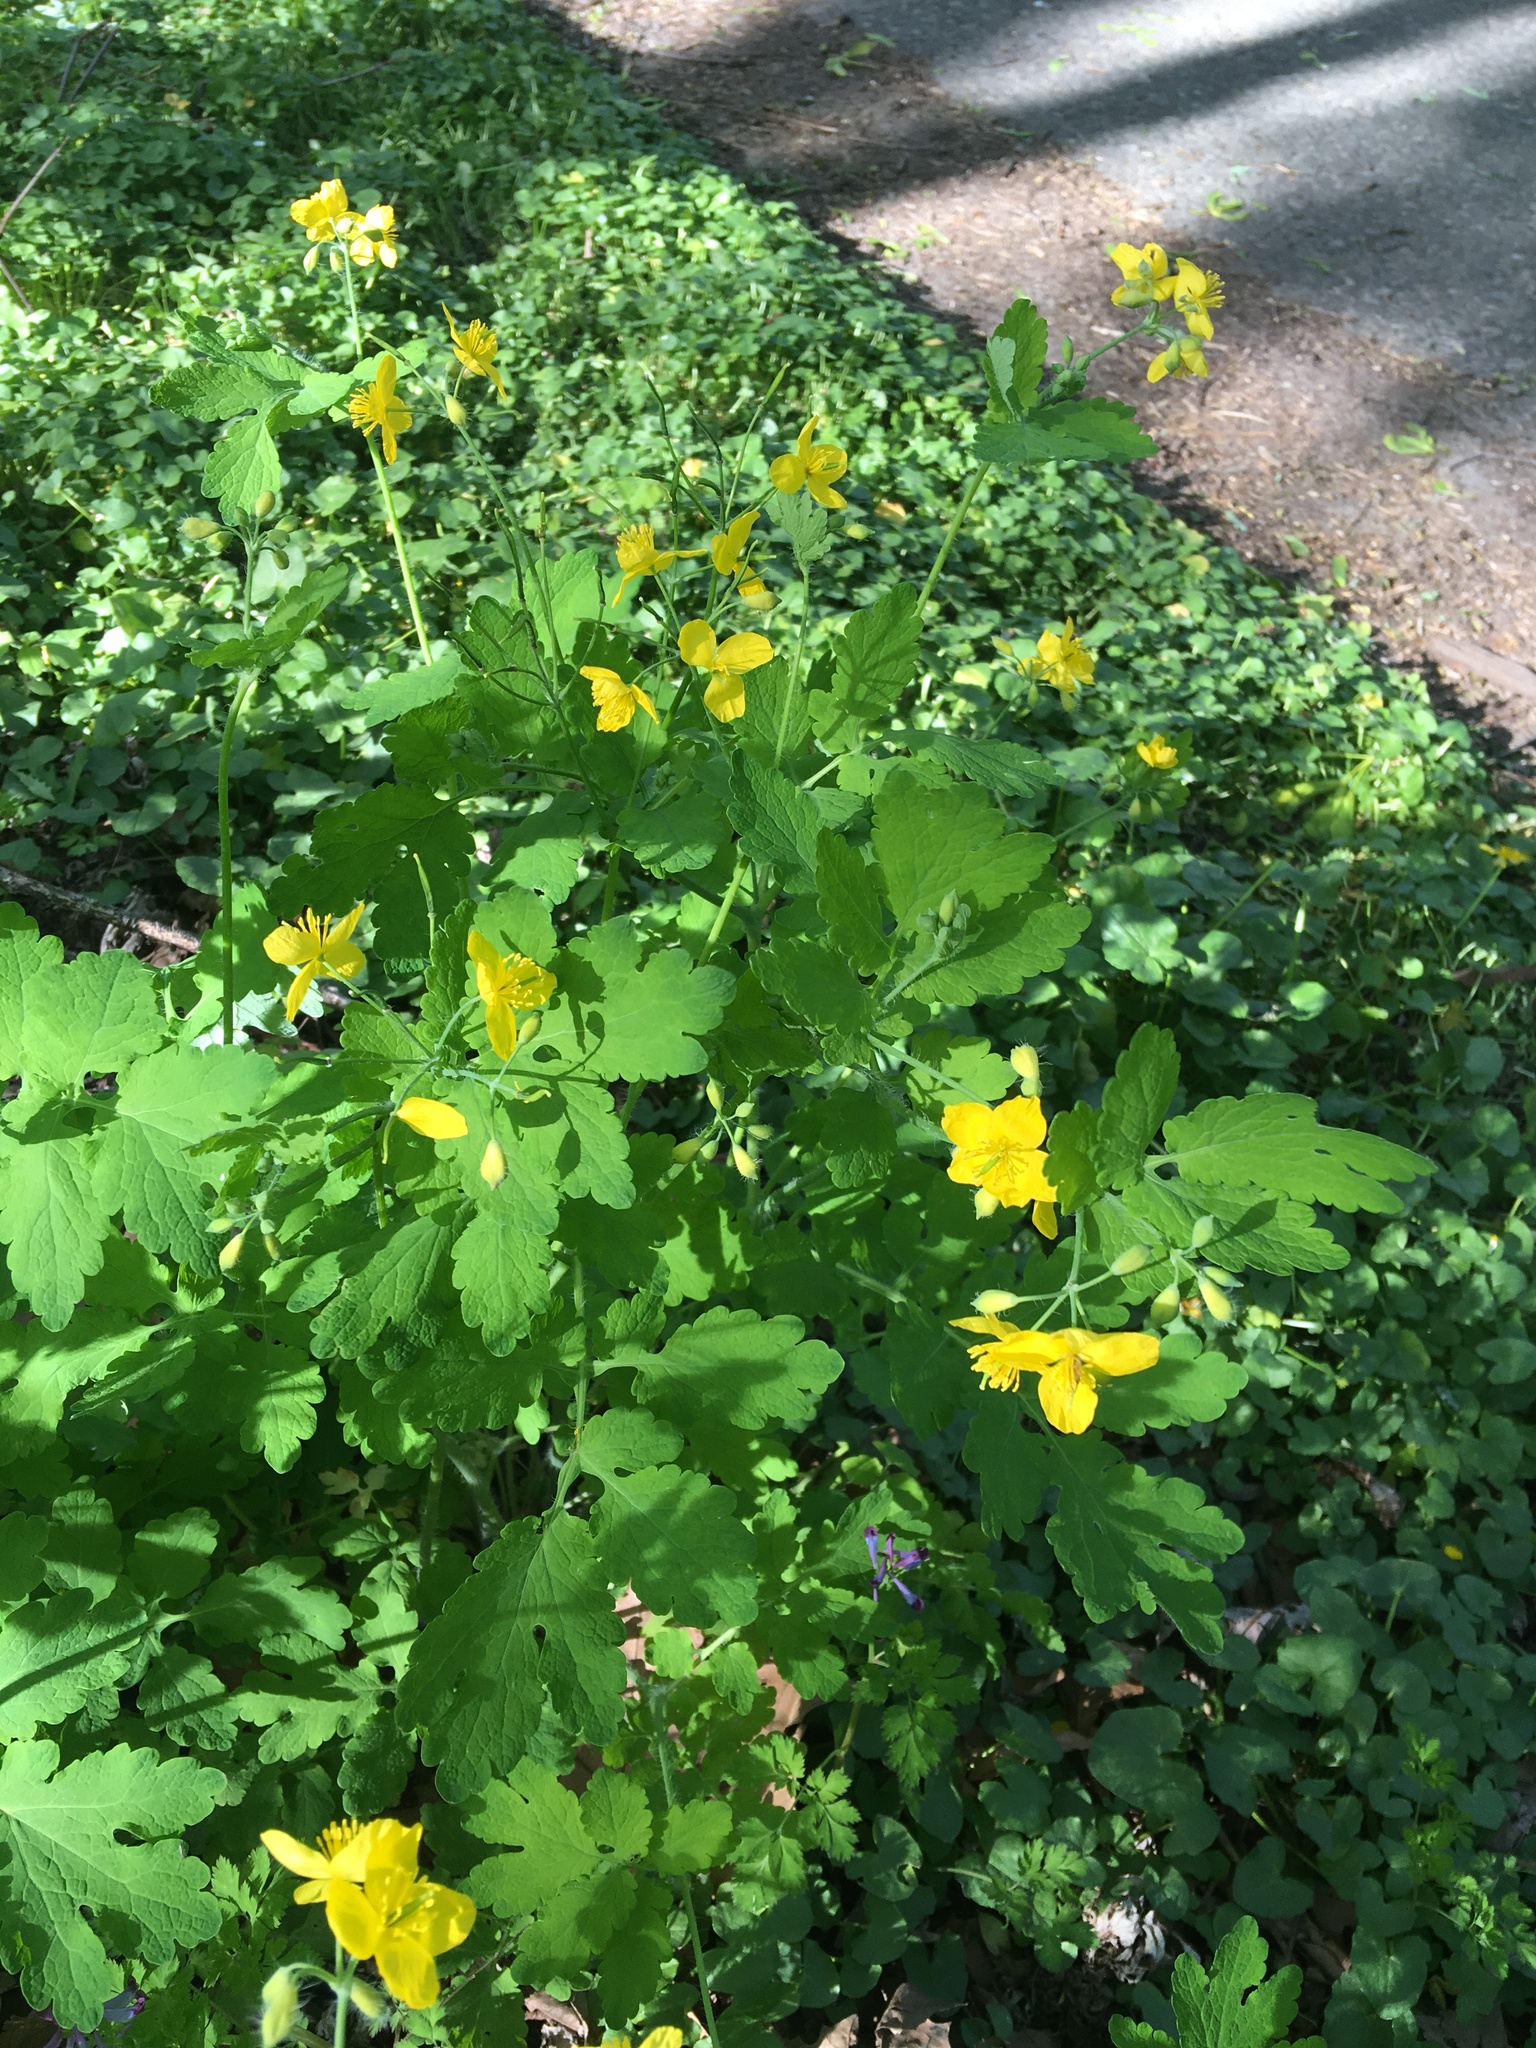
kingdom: Plantae
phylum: Tracheophyta
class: Magnoliopsida
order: Ranunculales
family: Papaveraceae
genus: Chelidonium
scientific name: Chelidonium majus
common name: Greater celandine
